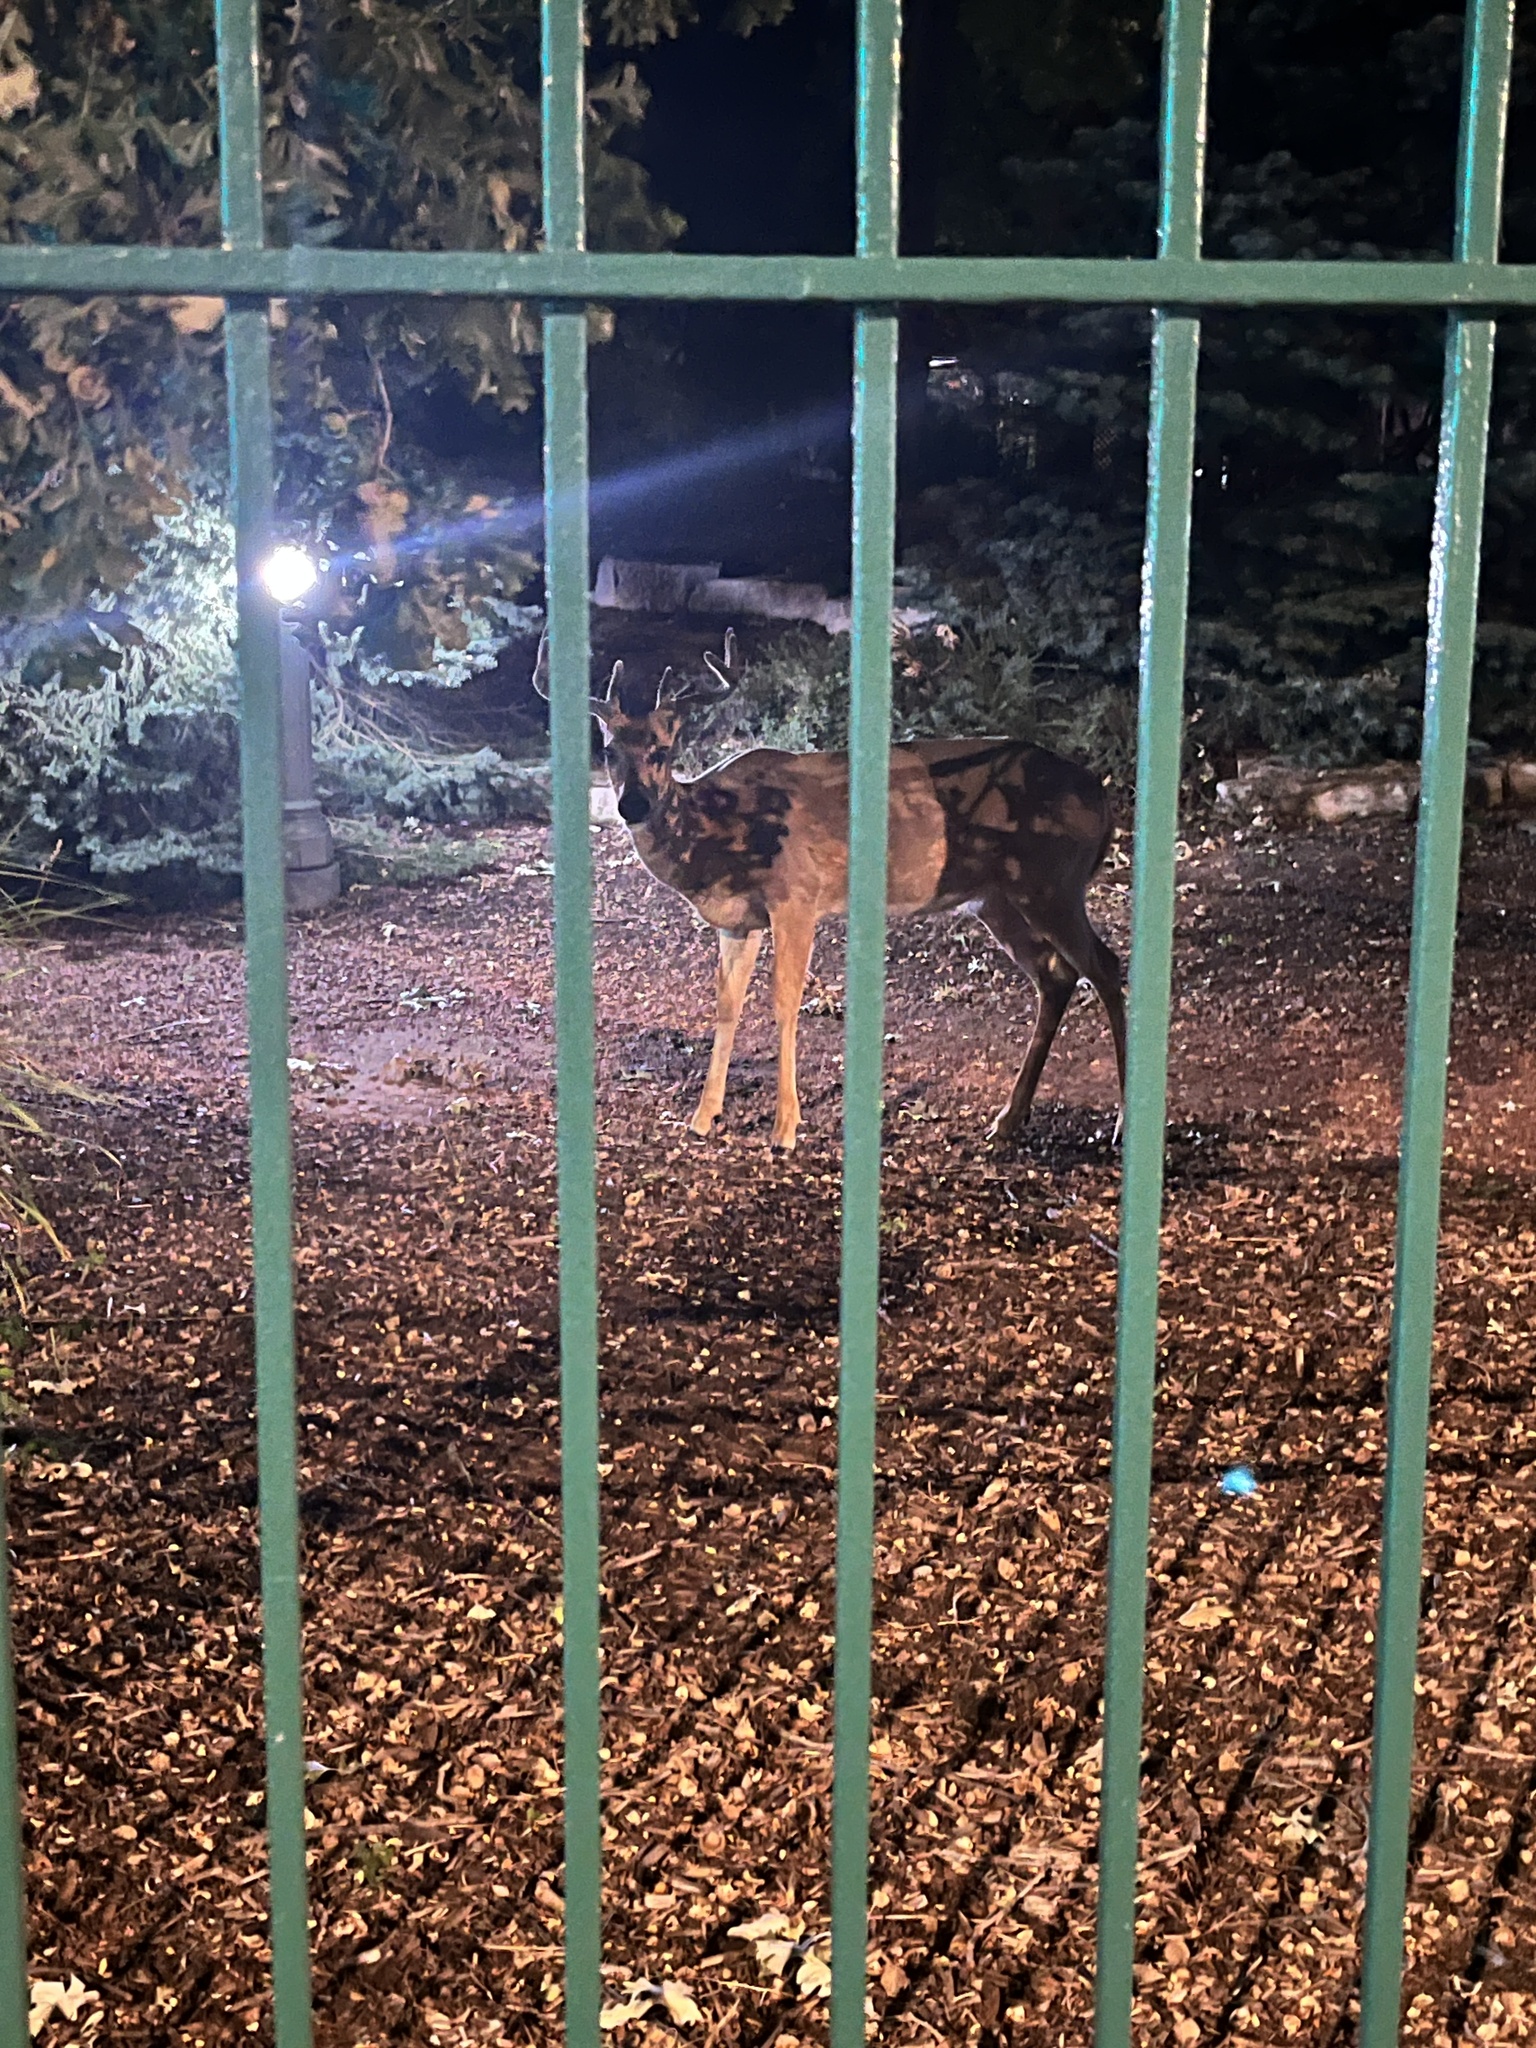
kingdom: Animalia
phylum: Chordata
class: Mammalia
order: Artiodactyla
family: Cervidae
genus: Odocoileus
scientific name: Odocoileus virginianus
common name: White-tailed deer
